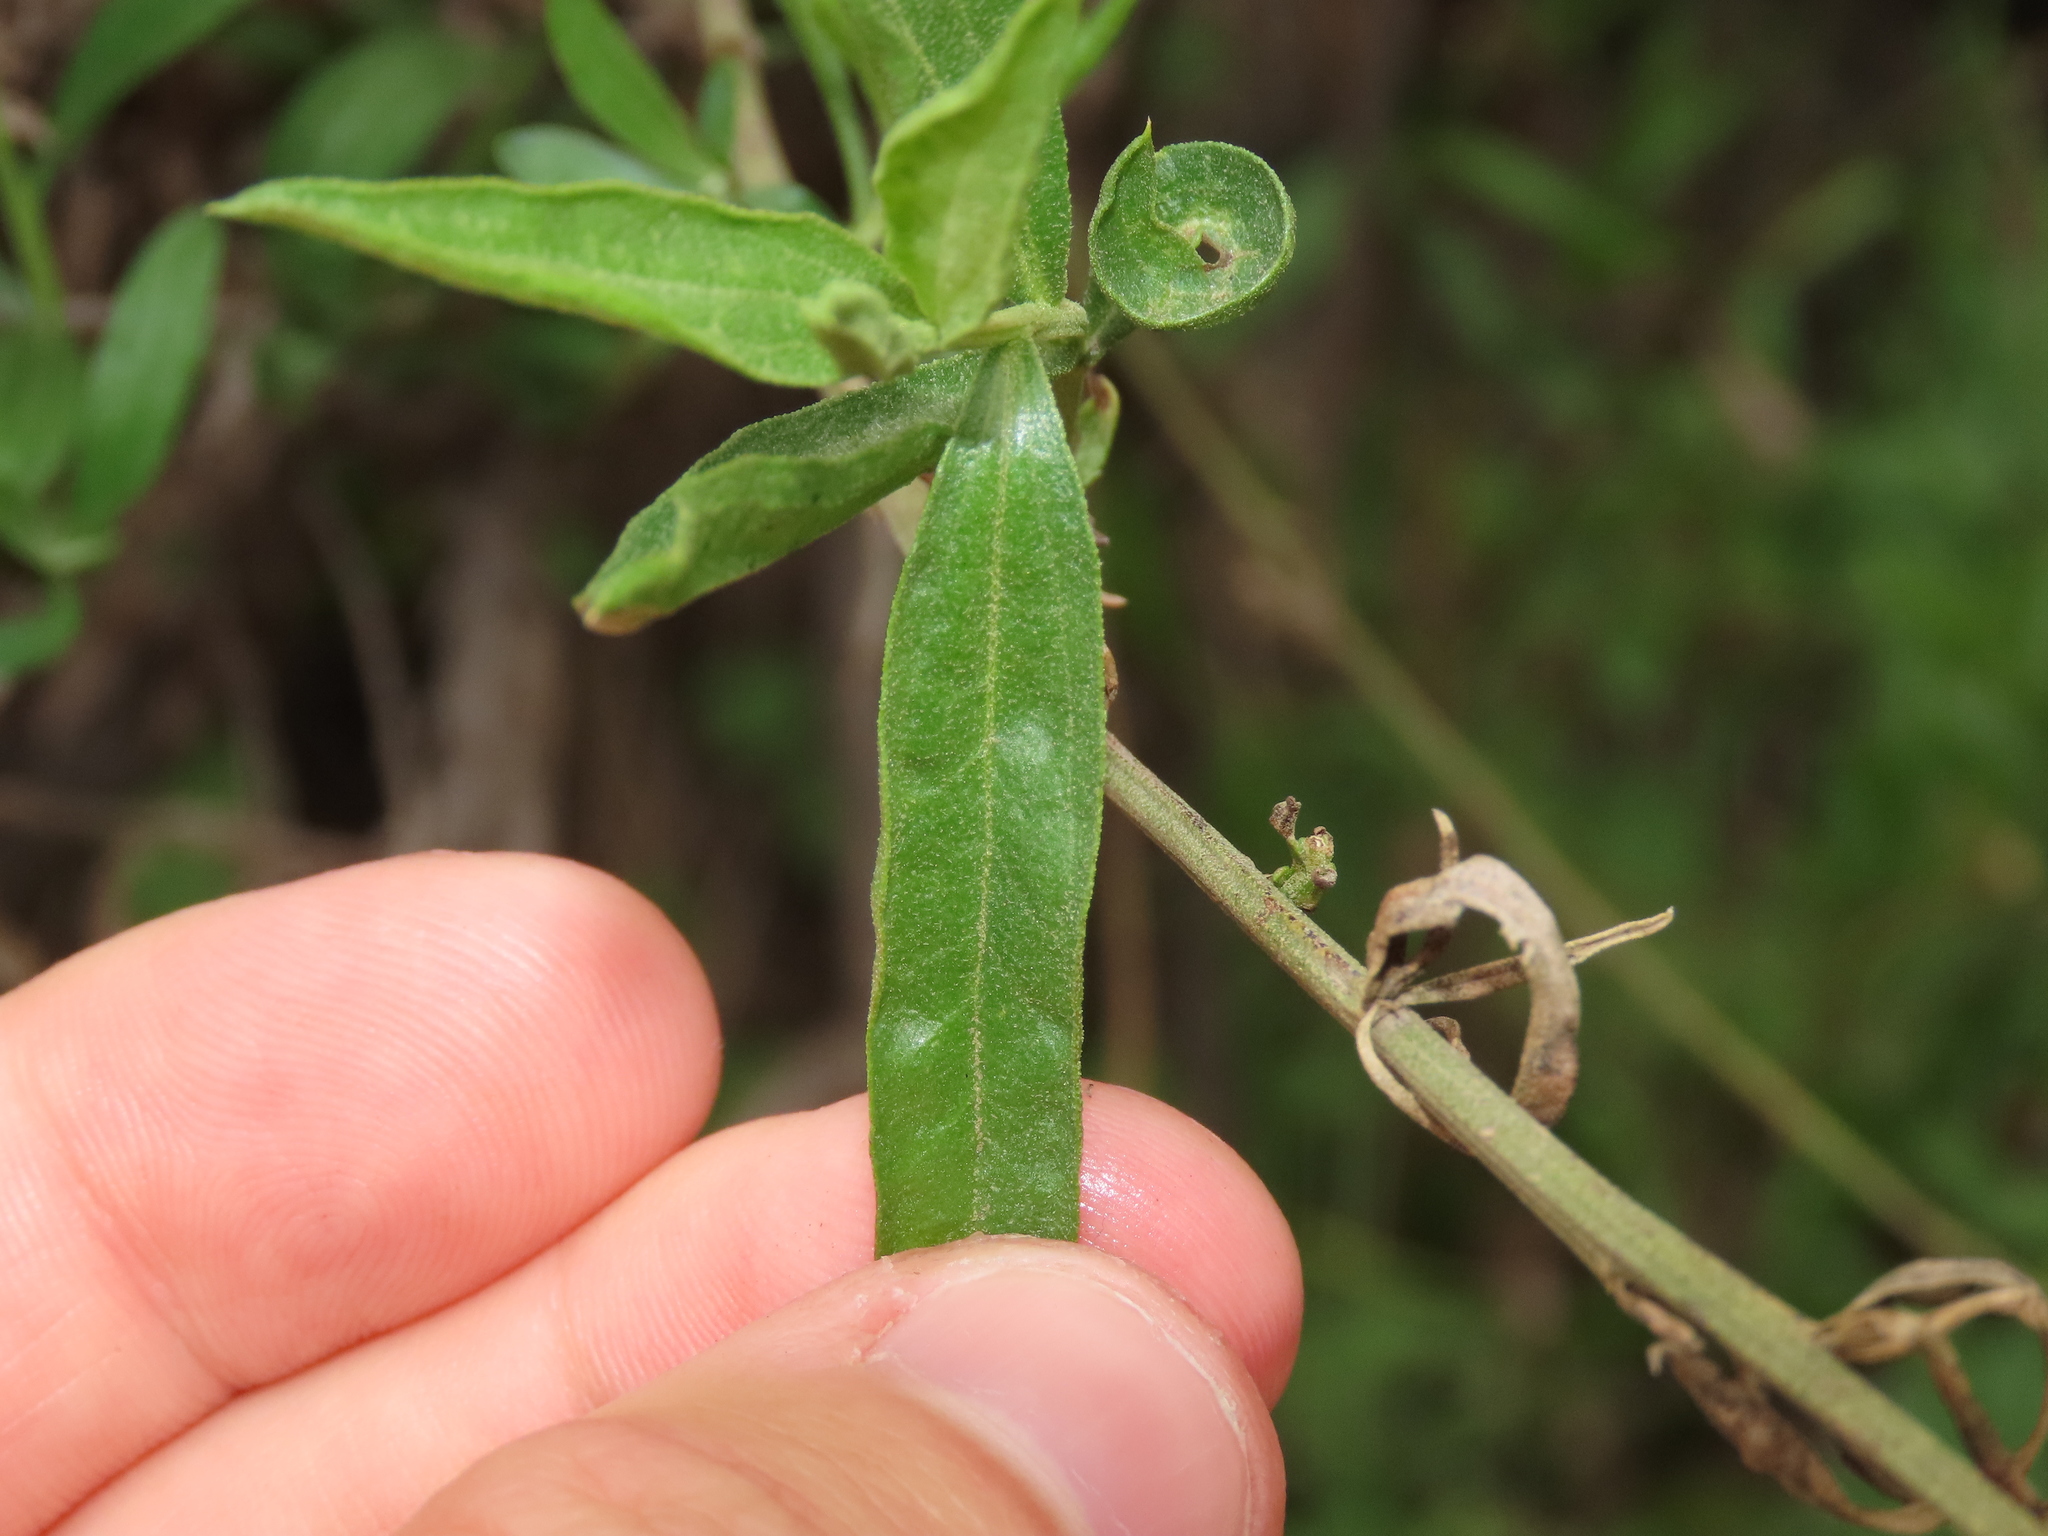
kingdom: Plantae
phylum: Tracheophyta
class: Magnoliopsida
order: Asterales
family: Asteraceae
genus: Baccharis
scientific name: Baccharis paniculata
